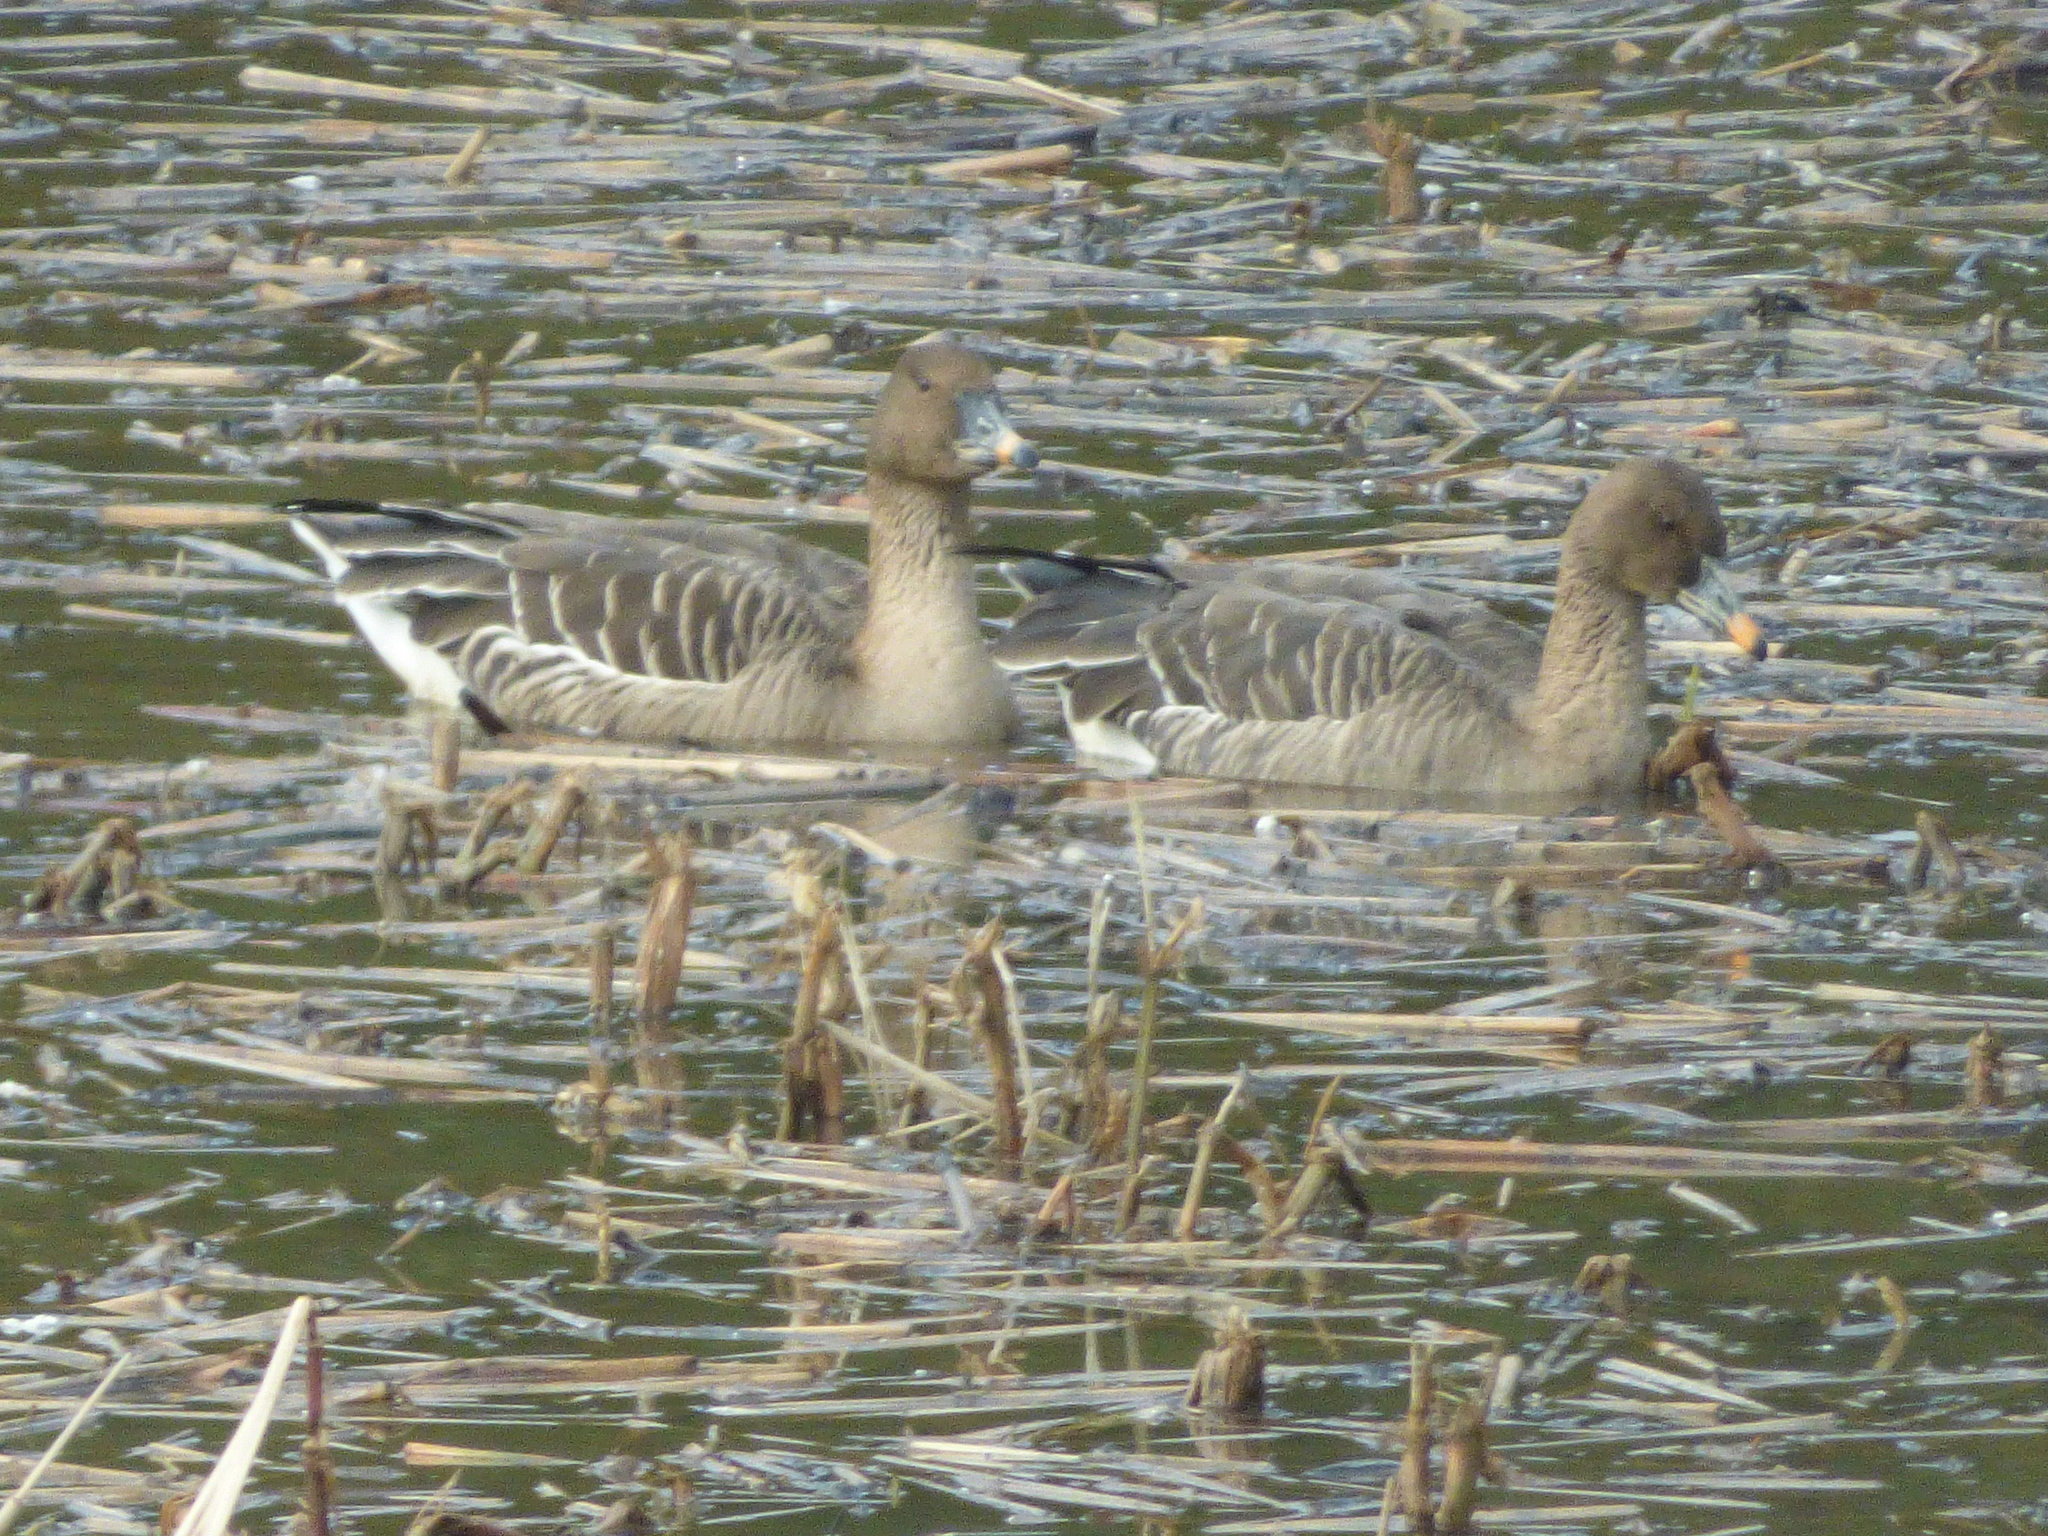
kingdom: Animalia
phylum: Chordata
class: Aves
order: Anseriformes
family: Anatidae
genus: Anser
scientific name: Anser serrirostris
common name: Tundra bean goose
